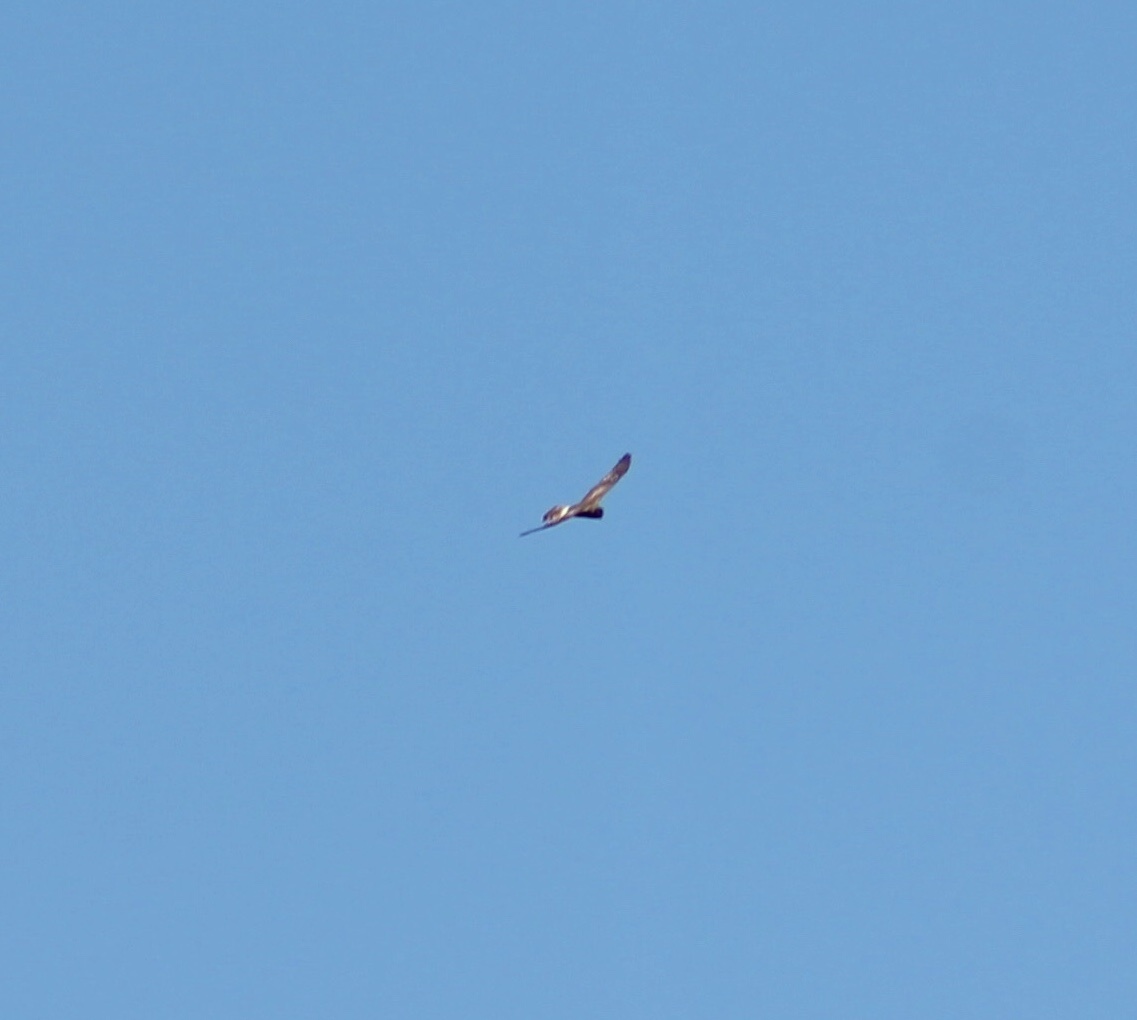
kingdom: Animalia
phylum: Chordata
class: Aves
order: Accipitriformes
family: Accipitridae
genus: Circus
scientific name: Circus cyaneus
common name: Hen harrier
